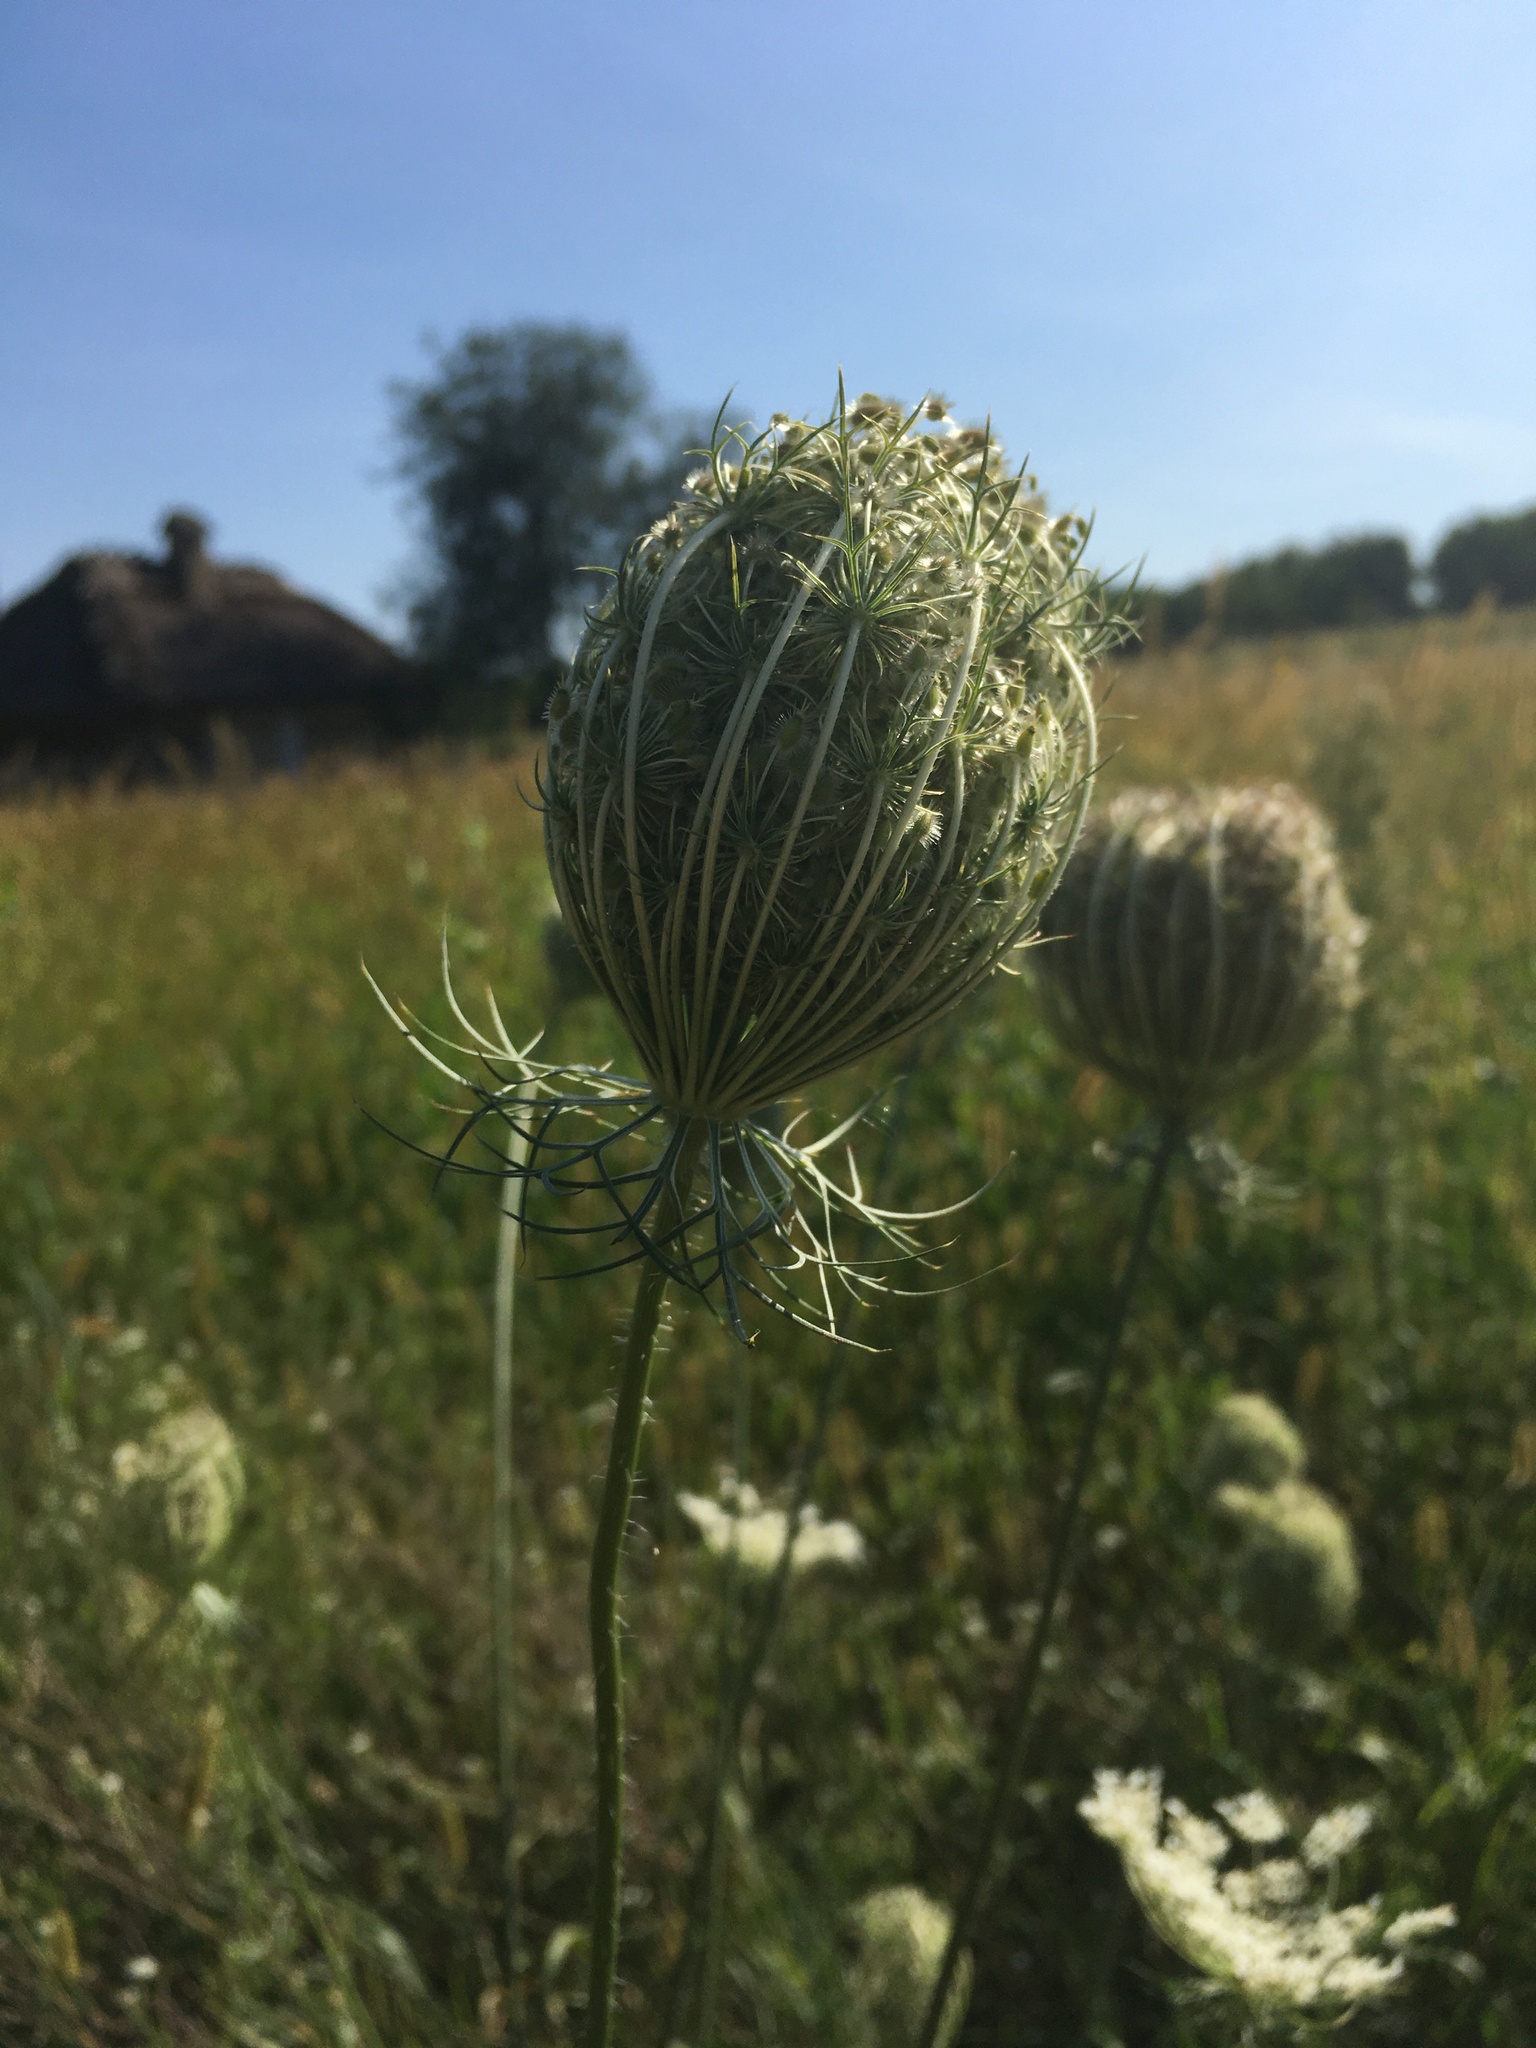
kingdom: Plantae
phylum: Tracheophyta
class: Magnoliopsida
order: Apiales
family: Apiaceae
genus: Daucus
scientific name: Daucus carota
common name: Wild carrot
